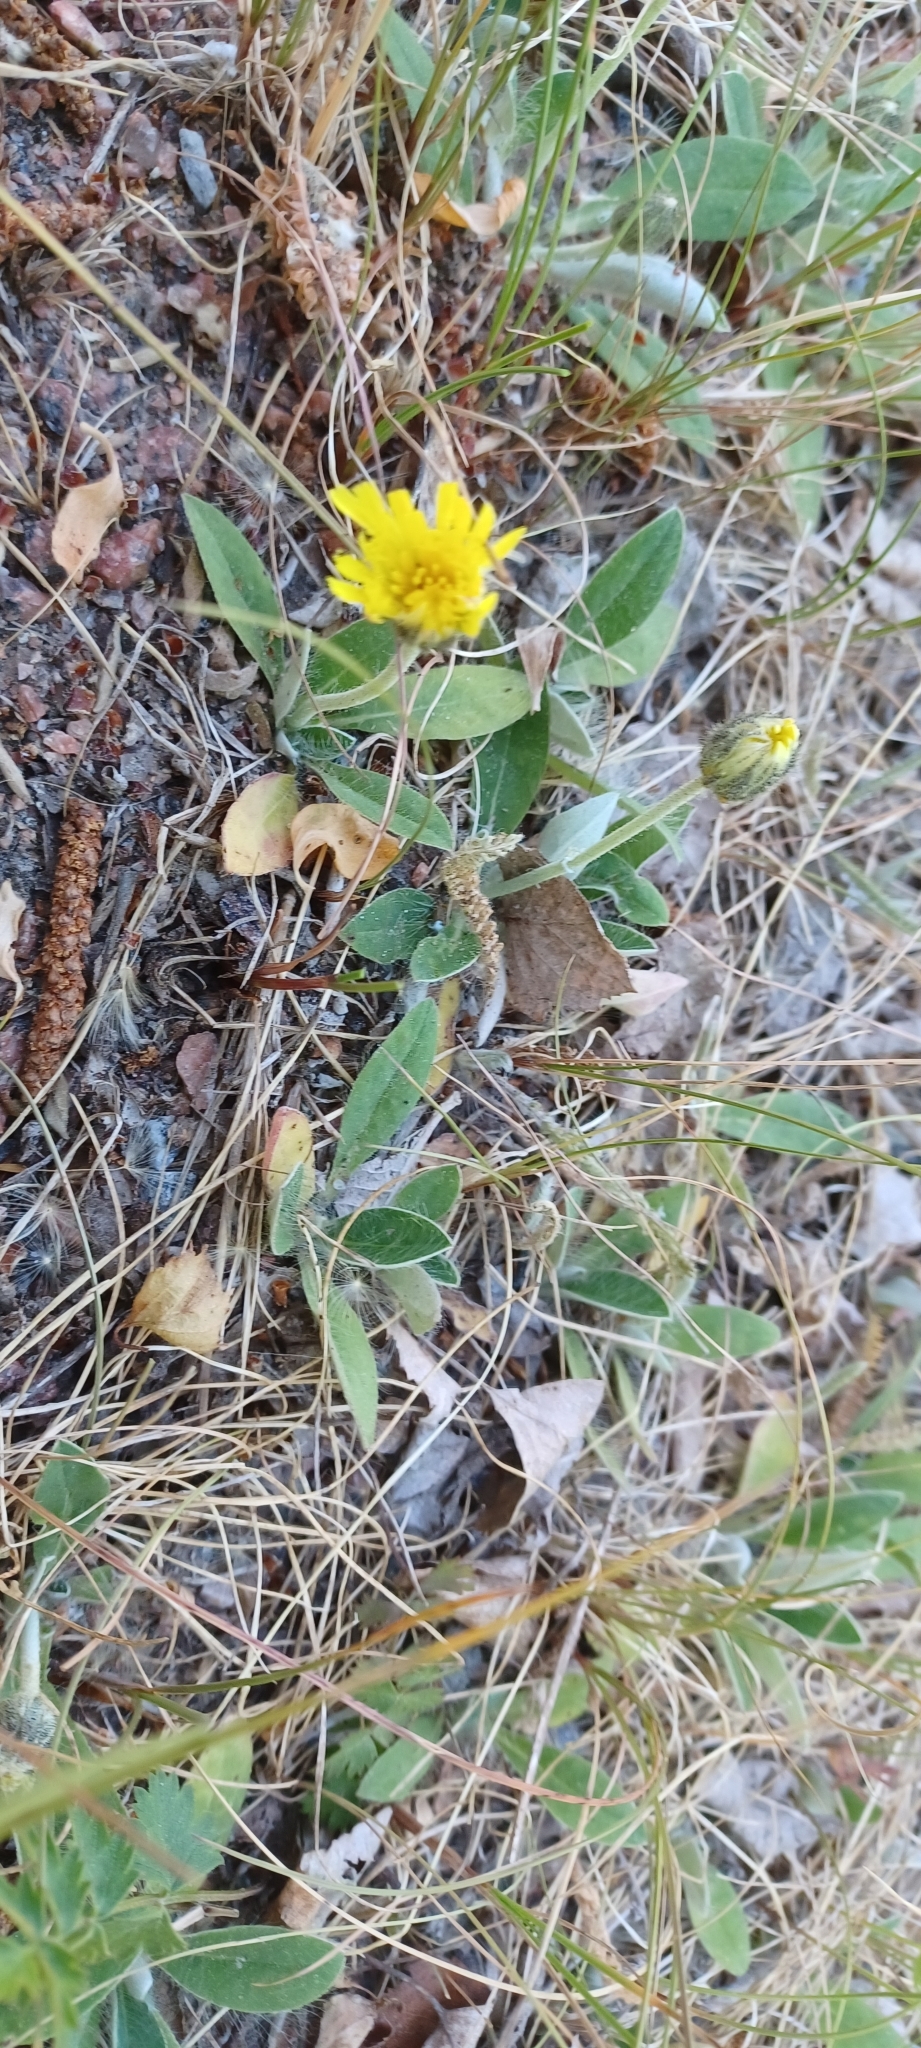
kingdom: Plantae
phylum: Tracheophyta
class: Magnoliopsida
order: Asterales
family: Asteraceae
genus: Pilosella
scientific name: Pilosella officinarum
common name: Mouse-ear hawkweed
